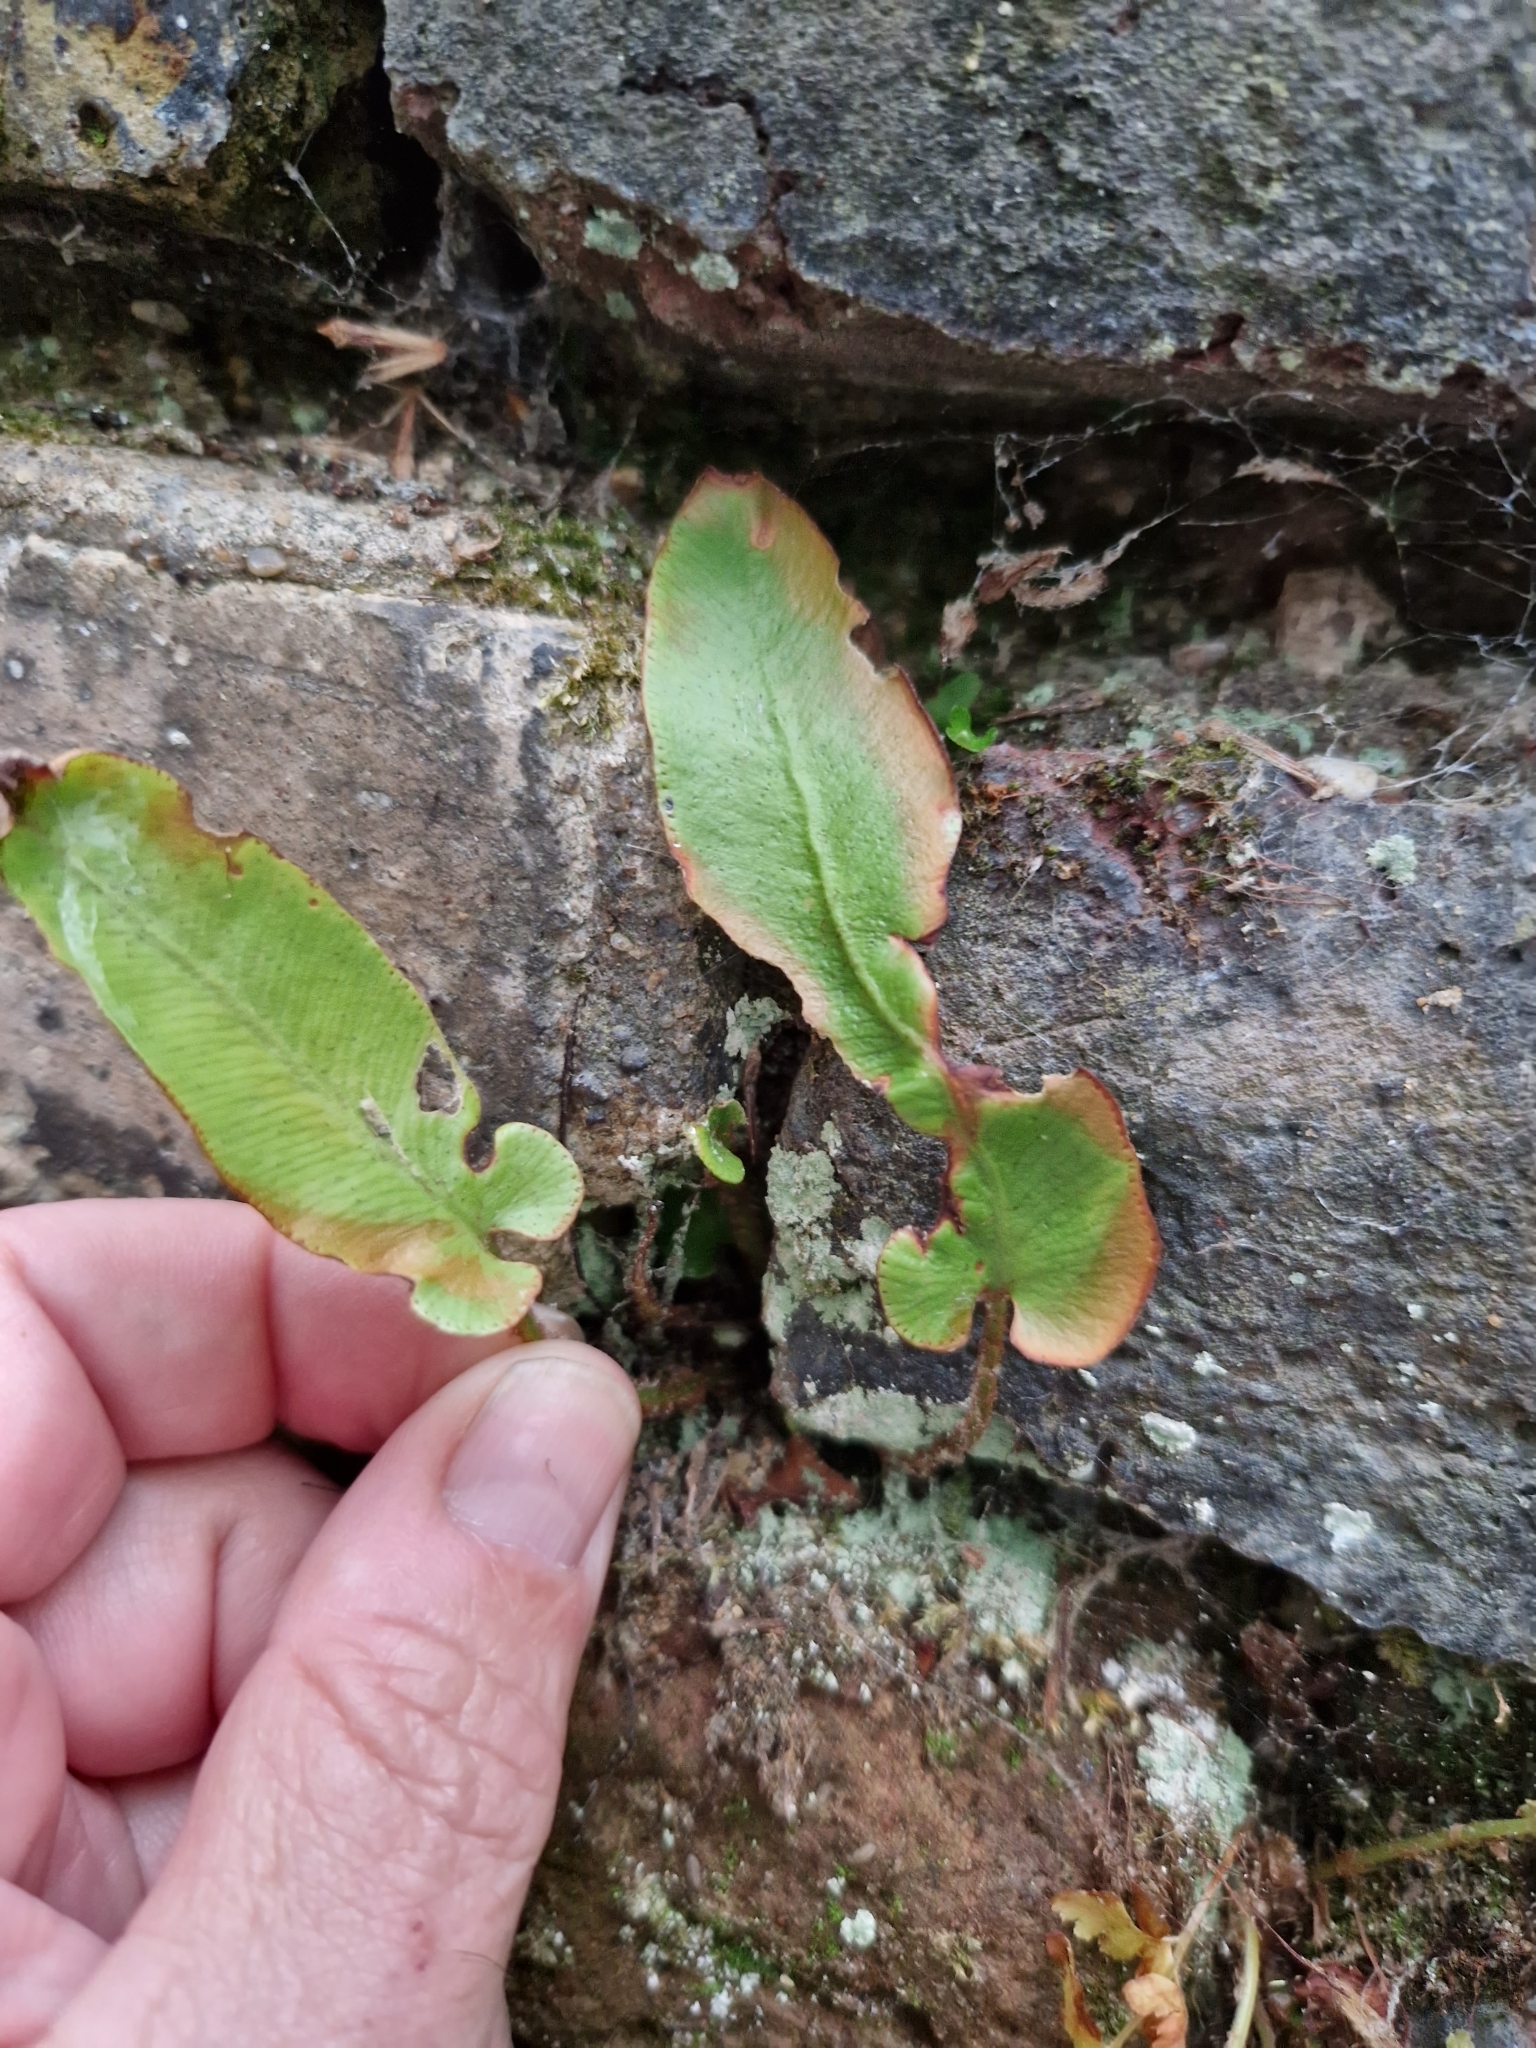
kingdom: Plantae
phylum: Tracheophyta
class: Polypodiopsida
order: Polypodiales
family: Aspleniaceae
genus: Asplenium
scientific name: Asplenium scolopendrium
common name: Hart's-tongue fern
